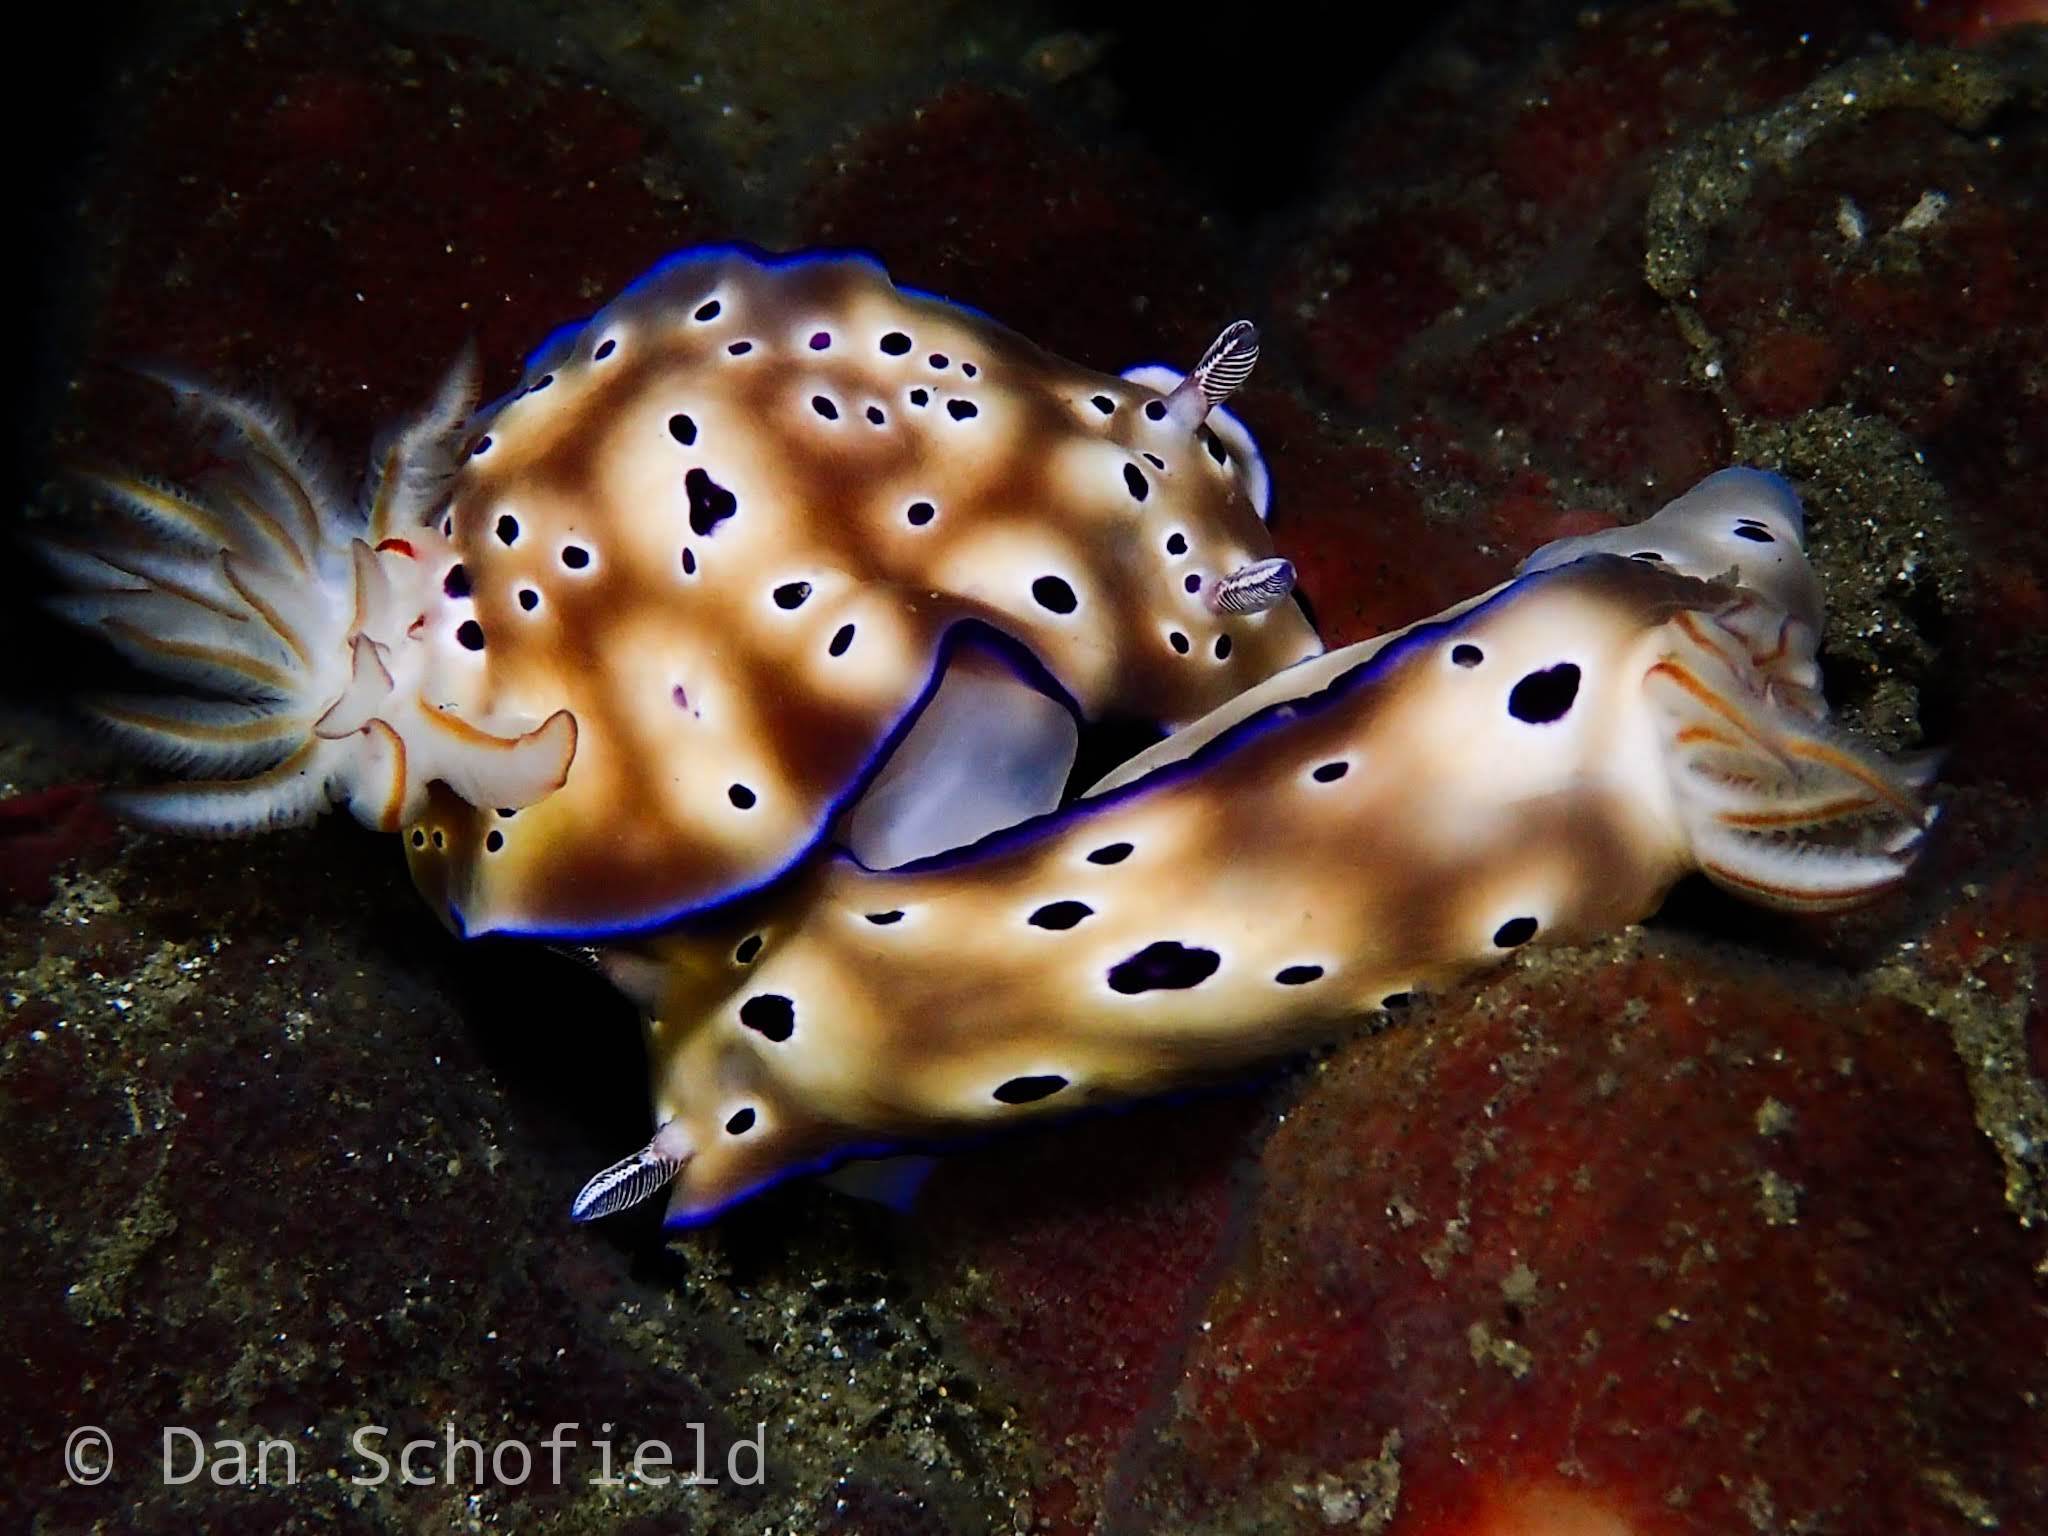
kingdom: Animalia
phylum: Mollusca
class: Gastropoda
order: Nudibranchia
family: Chromodorididae
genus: Hypselodoris
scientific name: Hypselodoris tryoni
